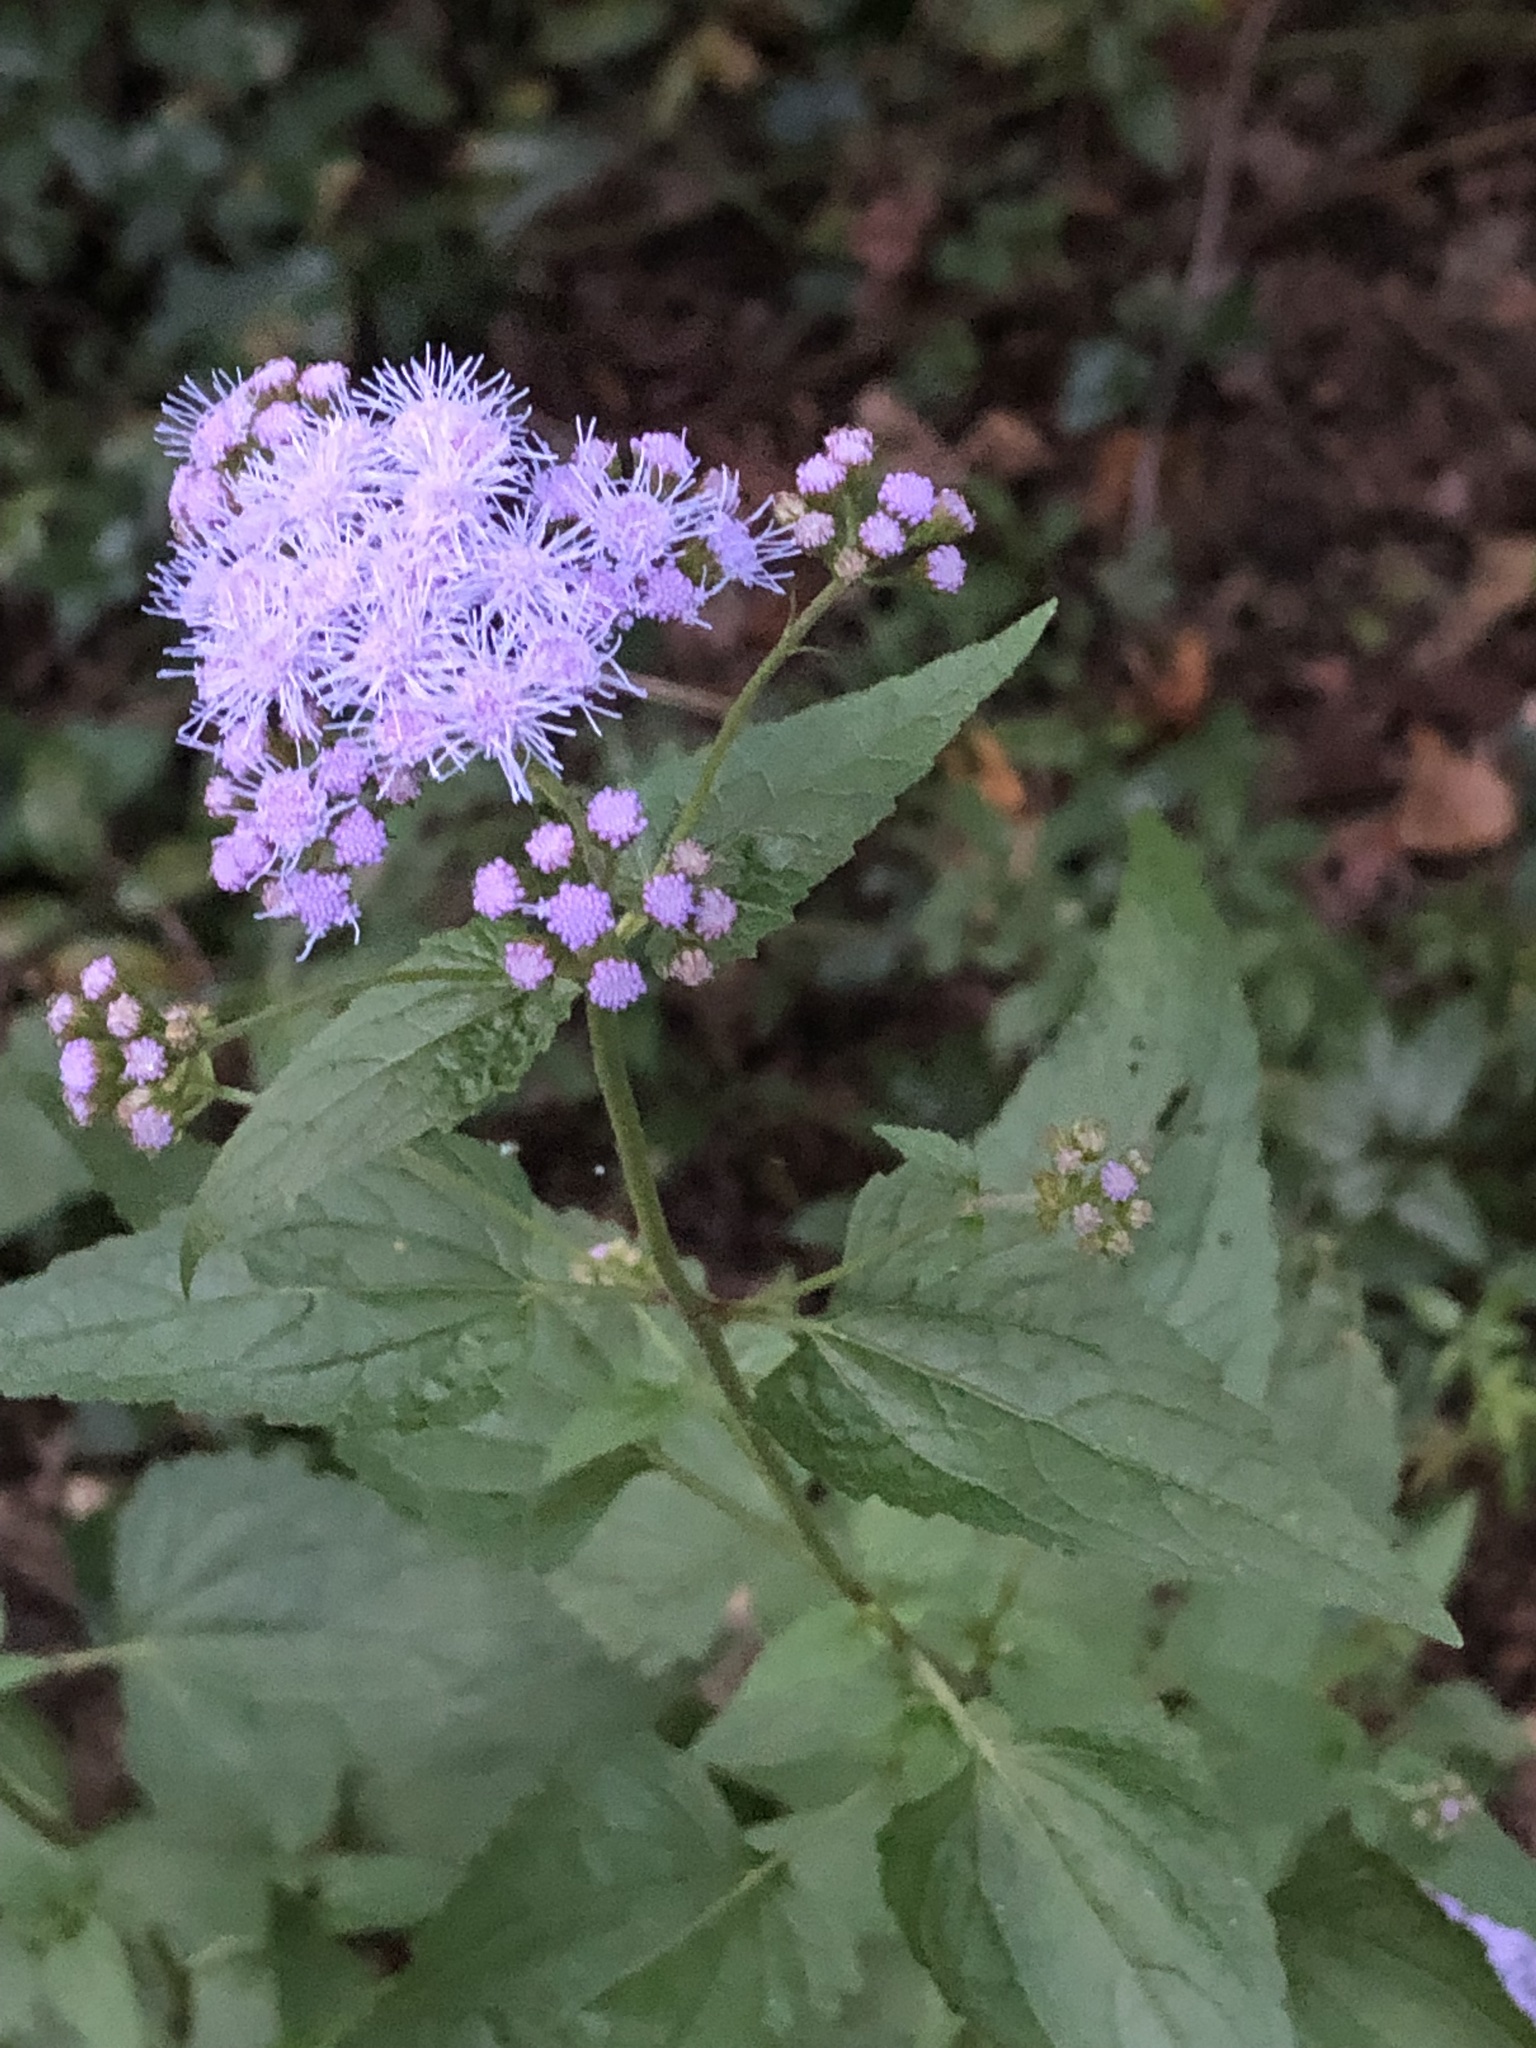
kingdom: Plantae
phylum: Tracheophyta
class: Magnoliopsida
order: Asterales
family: Asteraceae
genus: Conoclinium
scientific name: Conoclinium coelestinum
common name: Blue mistflower
